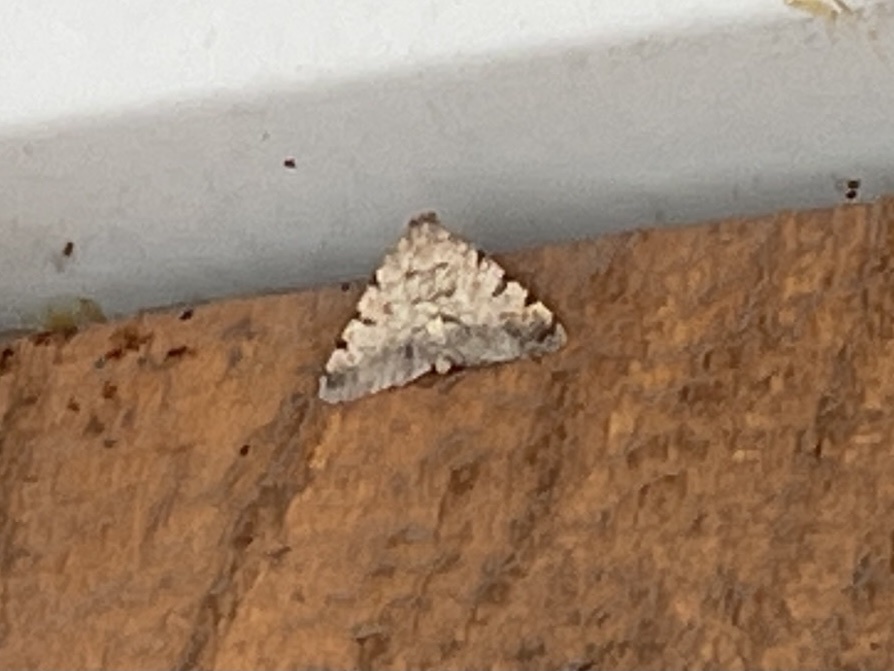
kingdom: Animalia
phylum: Arthropoda
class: Insecta
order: Lepidoptera
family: Geometridae
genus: Digrammia
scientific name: Digrammia colorata
